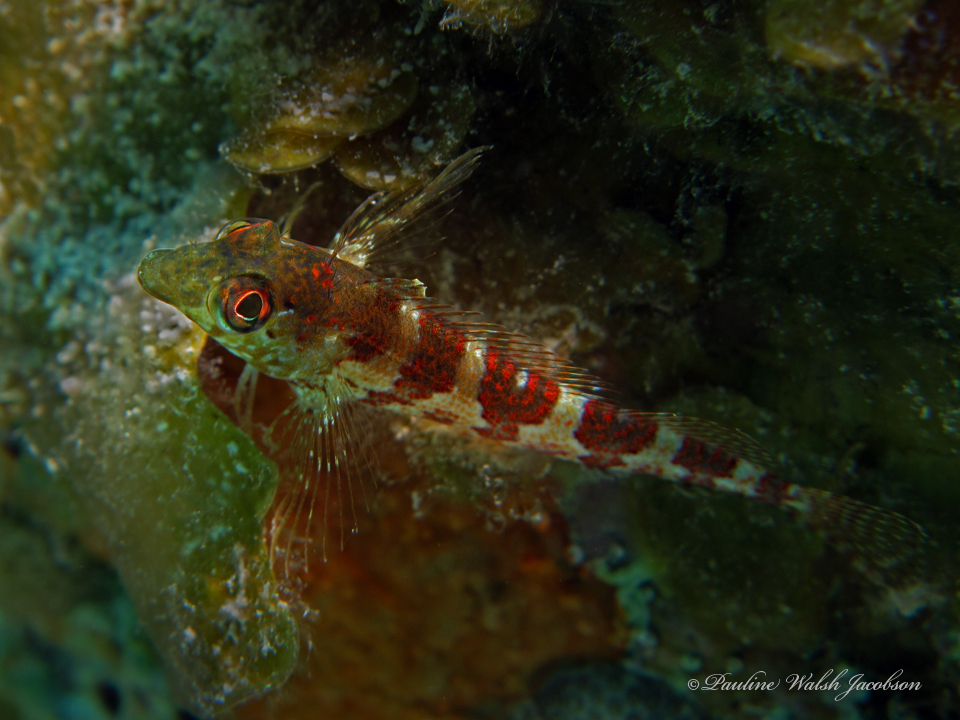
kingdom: Animalia
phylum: Chordata
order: Perciformes
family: Labrisomidae
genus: Malacoctenus
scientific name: Malacoctenus triangulatus
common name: Saddled blenny
